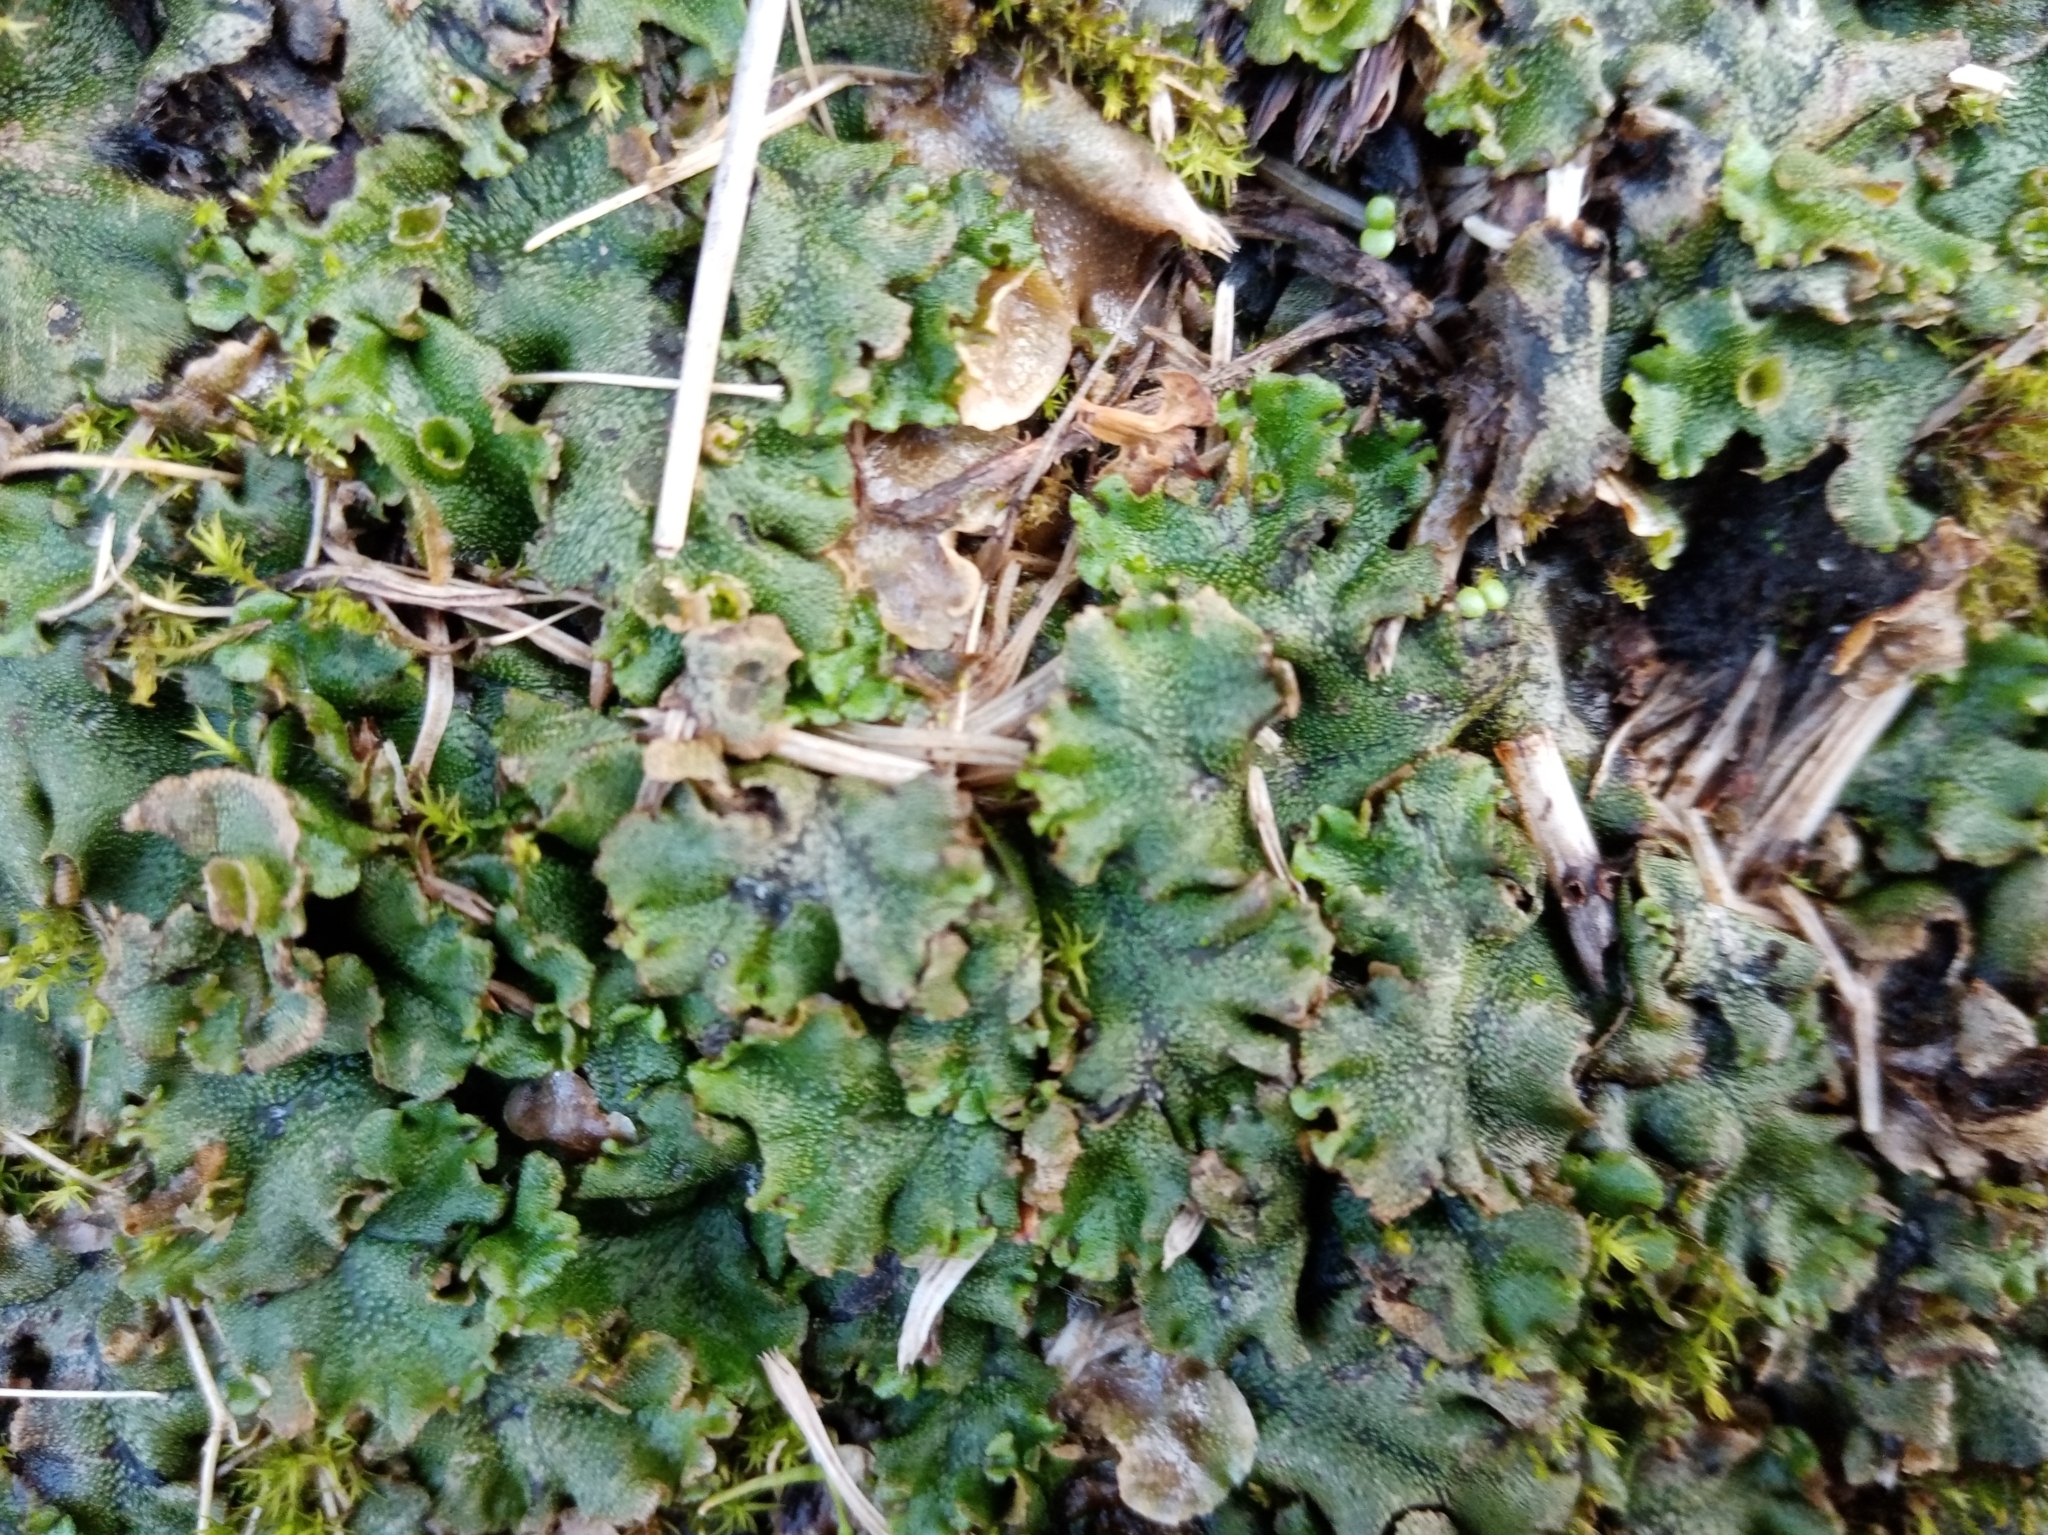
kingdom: Plantae
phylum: Marchantiophyta
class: Marchantiopsida
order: Marchantiales
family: Marchantiaceae
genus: Marchantia
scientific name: Marchantia polymorpha
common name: Common liverwort
